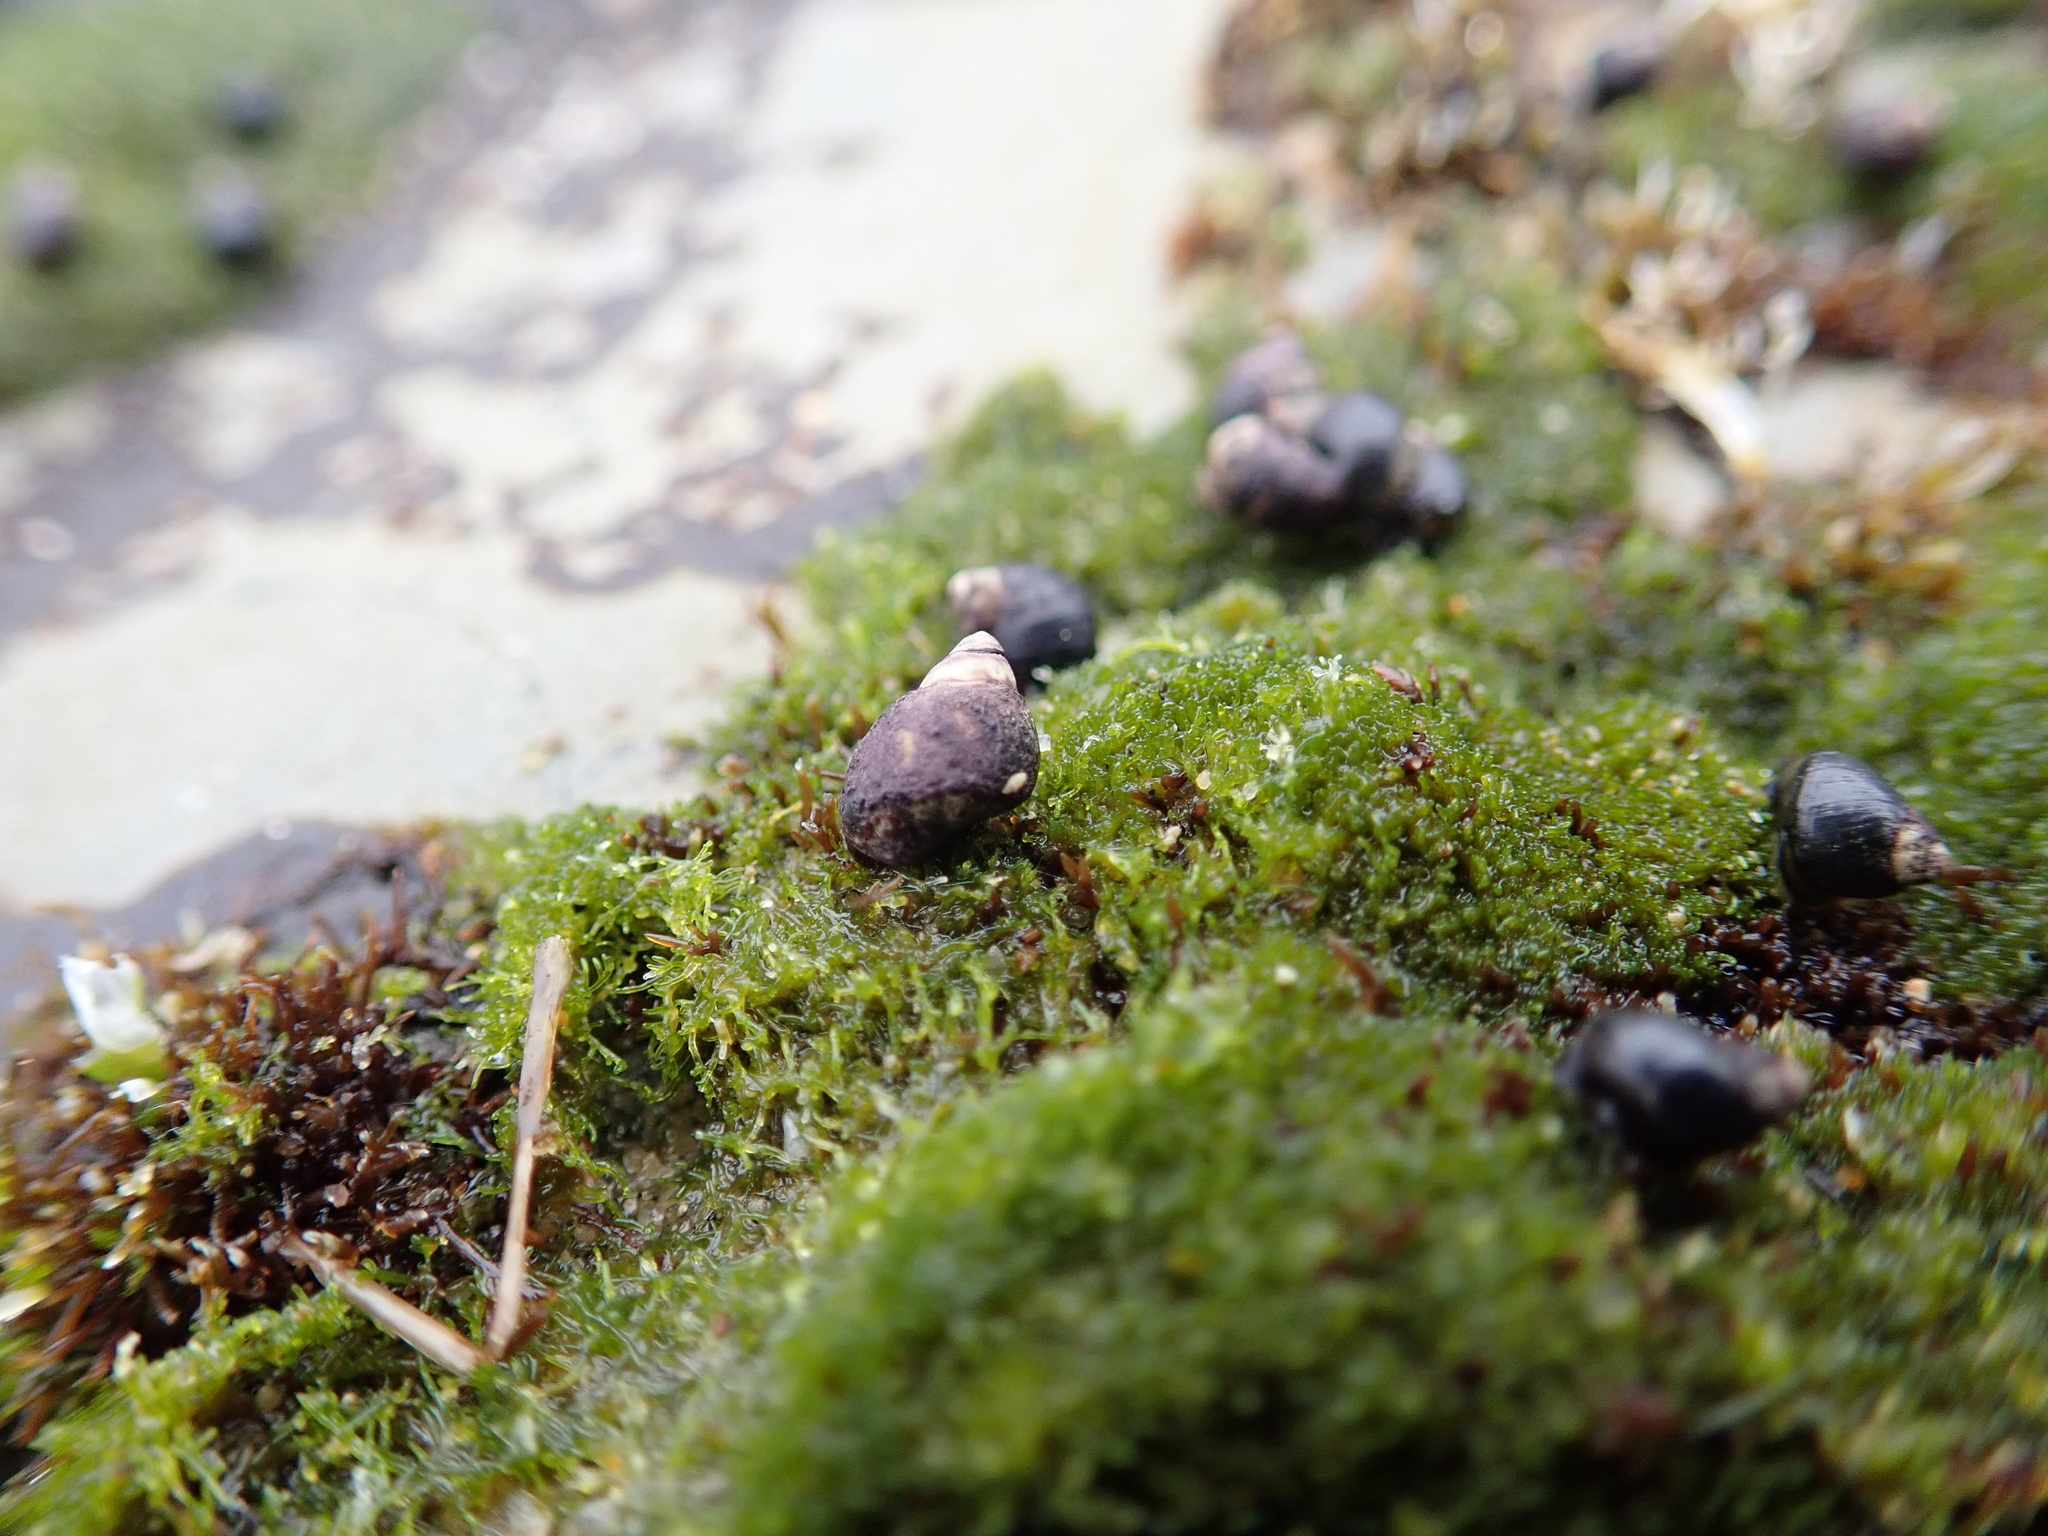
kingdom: Plantae
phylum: Chlorophyta
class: Ulvophyceae
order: Cladophorales
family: Cladophoraceae
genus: Cladophora
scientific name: Cladophora columbiana
